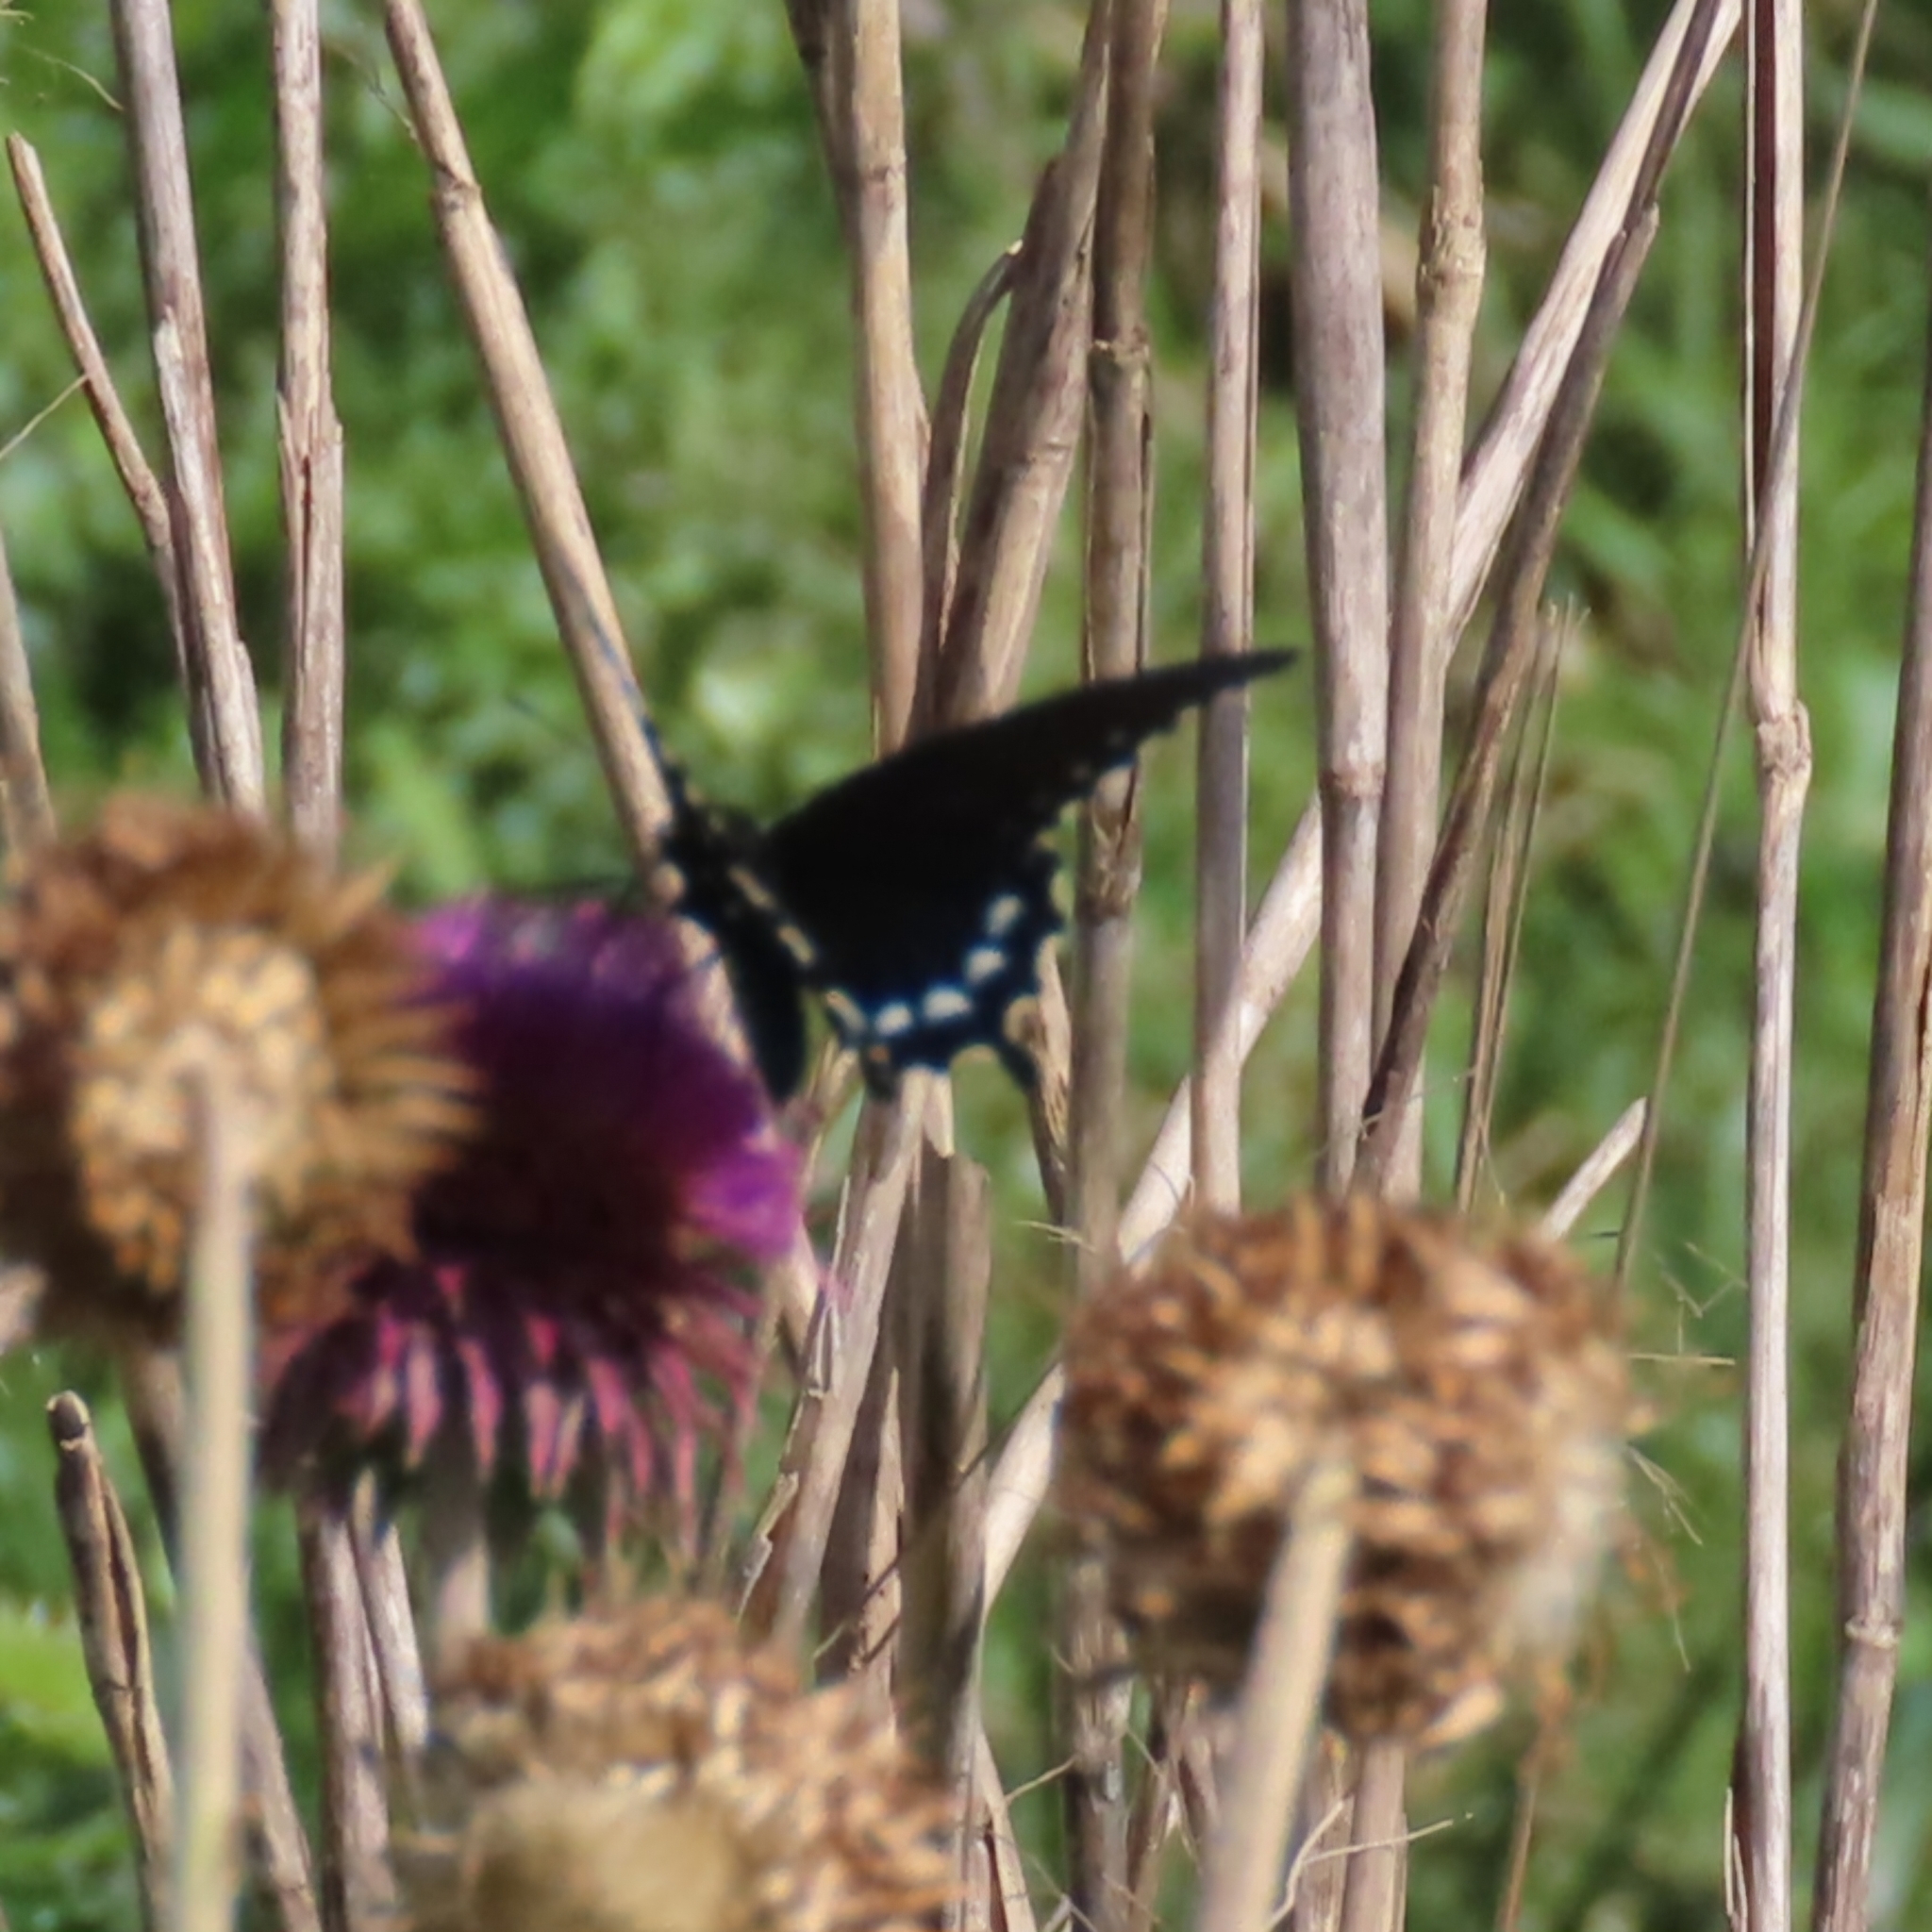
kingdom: Animalia
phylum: Arthropoda
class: Insecta
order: Lepidoptera
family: Papilionidae
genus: Battus
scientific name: Battus philenor
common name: Pipevine swallowtail
